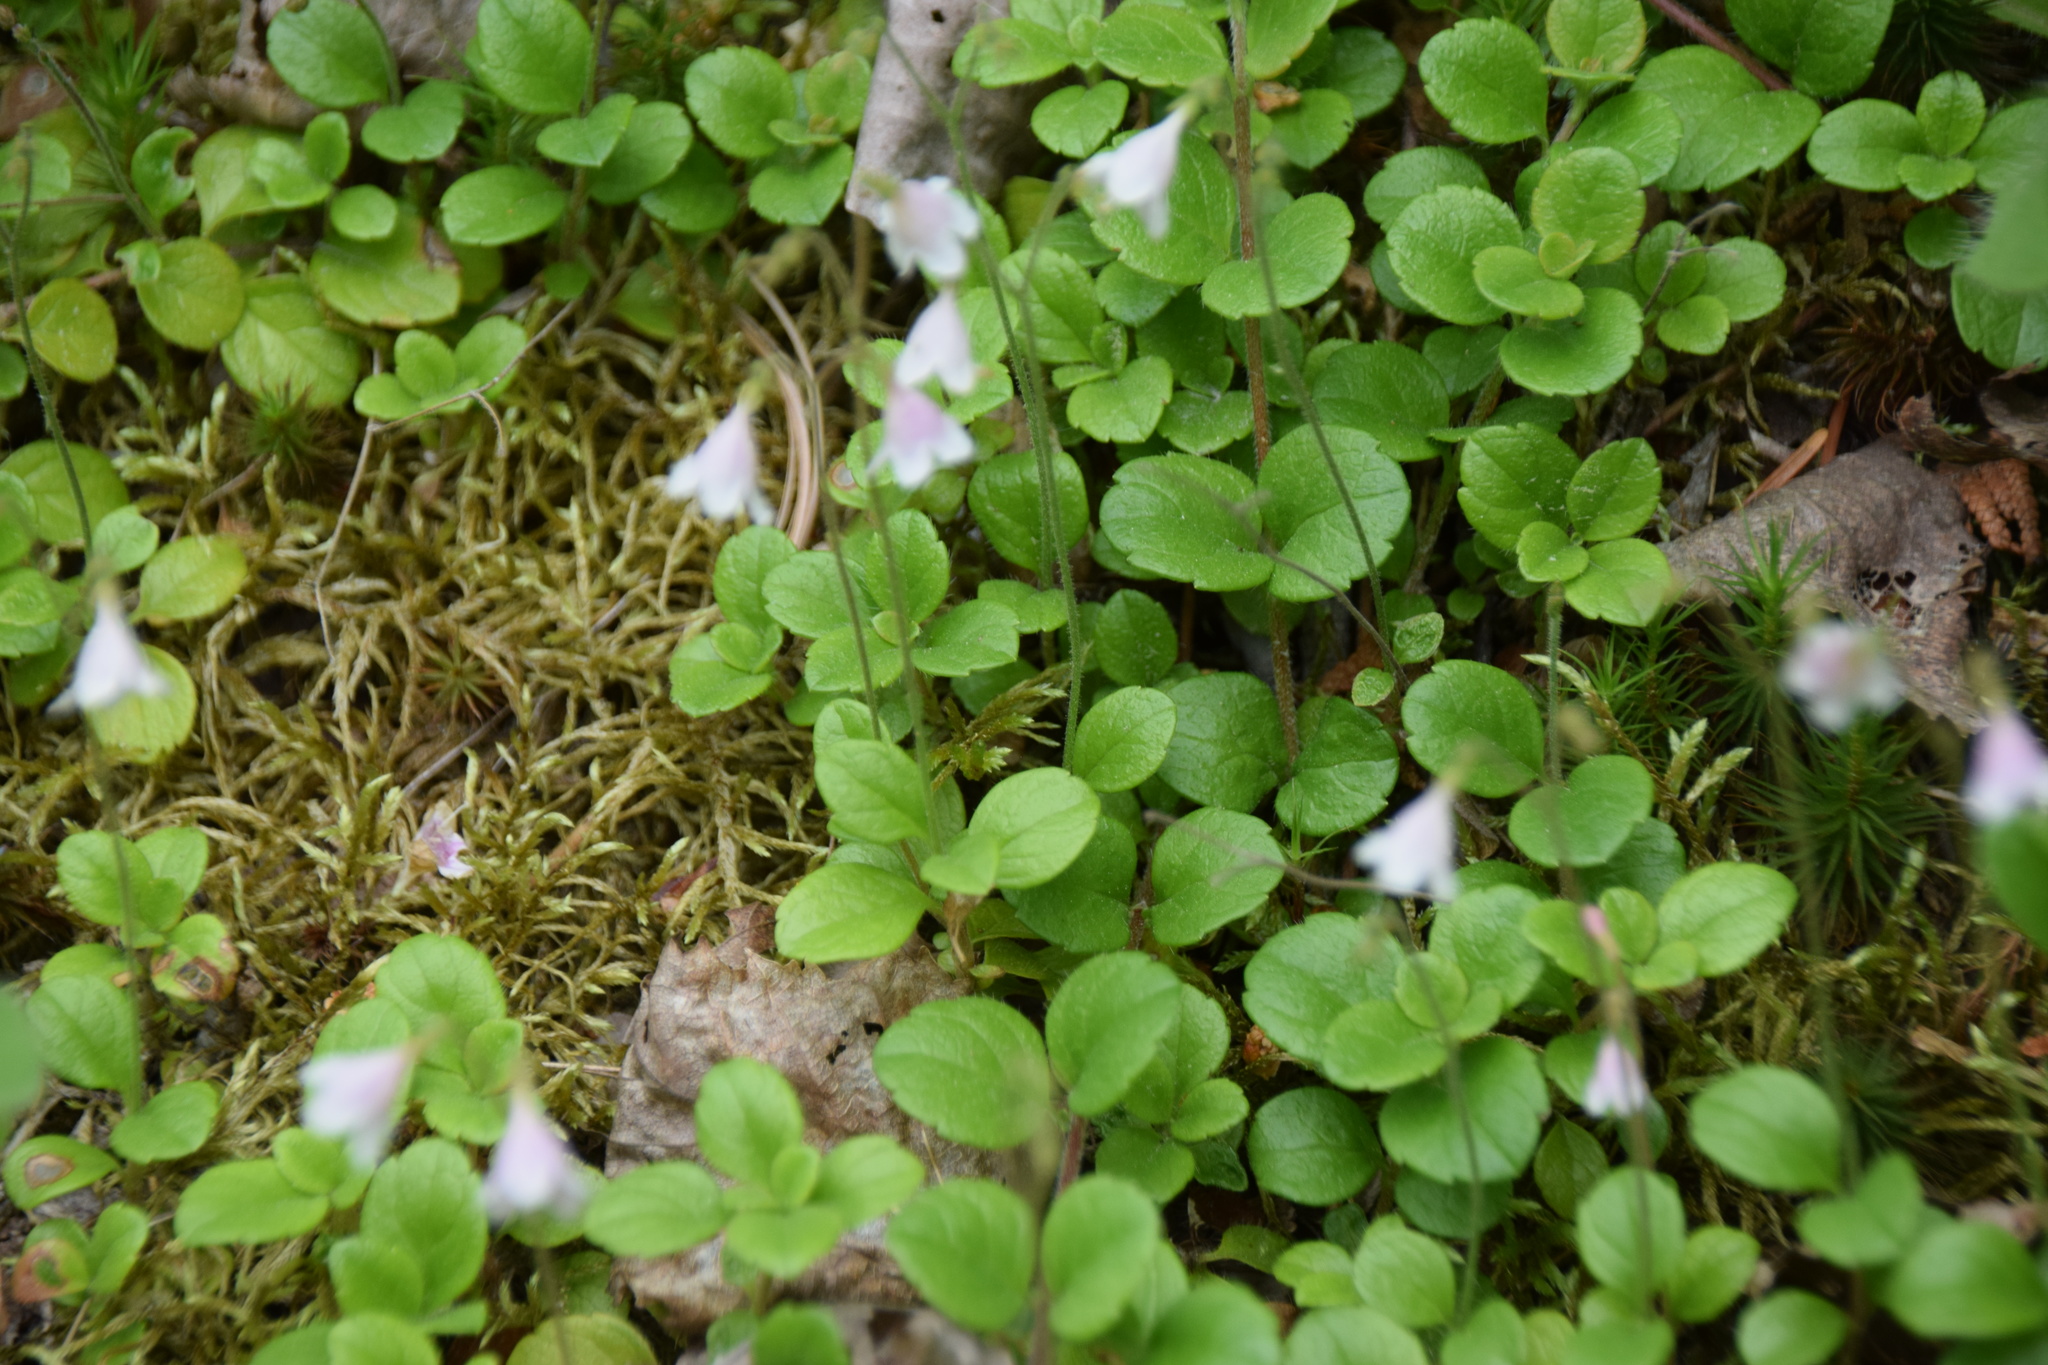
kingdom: Plantae
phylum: Tracheophyta
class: Magnoliopsida
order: Dipsacales
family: Caprifoliaceae
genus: Linnaea
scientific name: Linnaea borealis
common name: Twinflower
